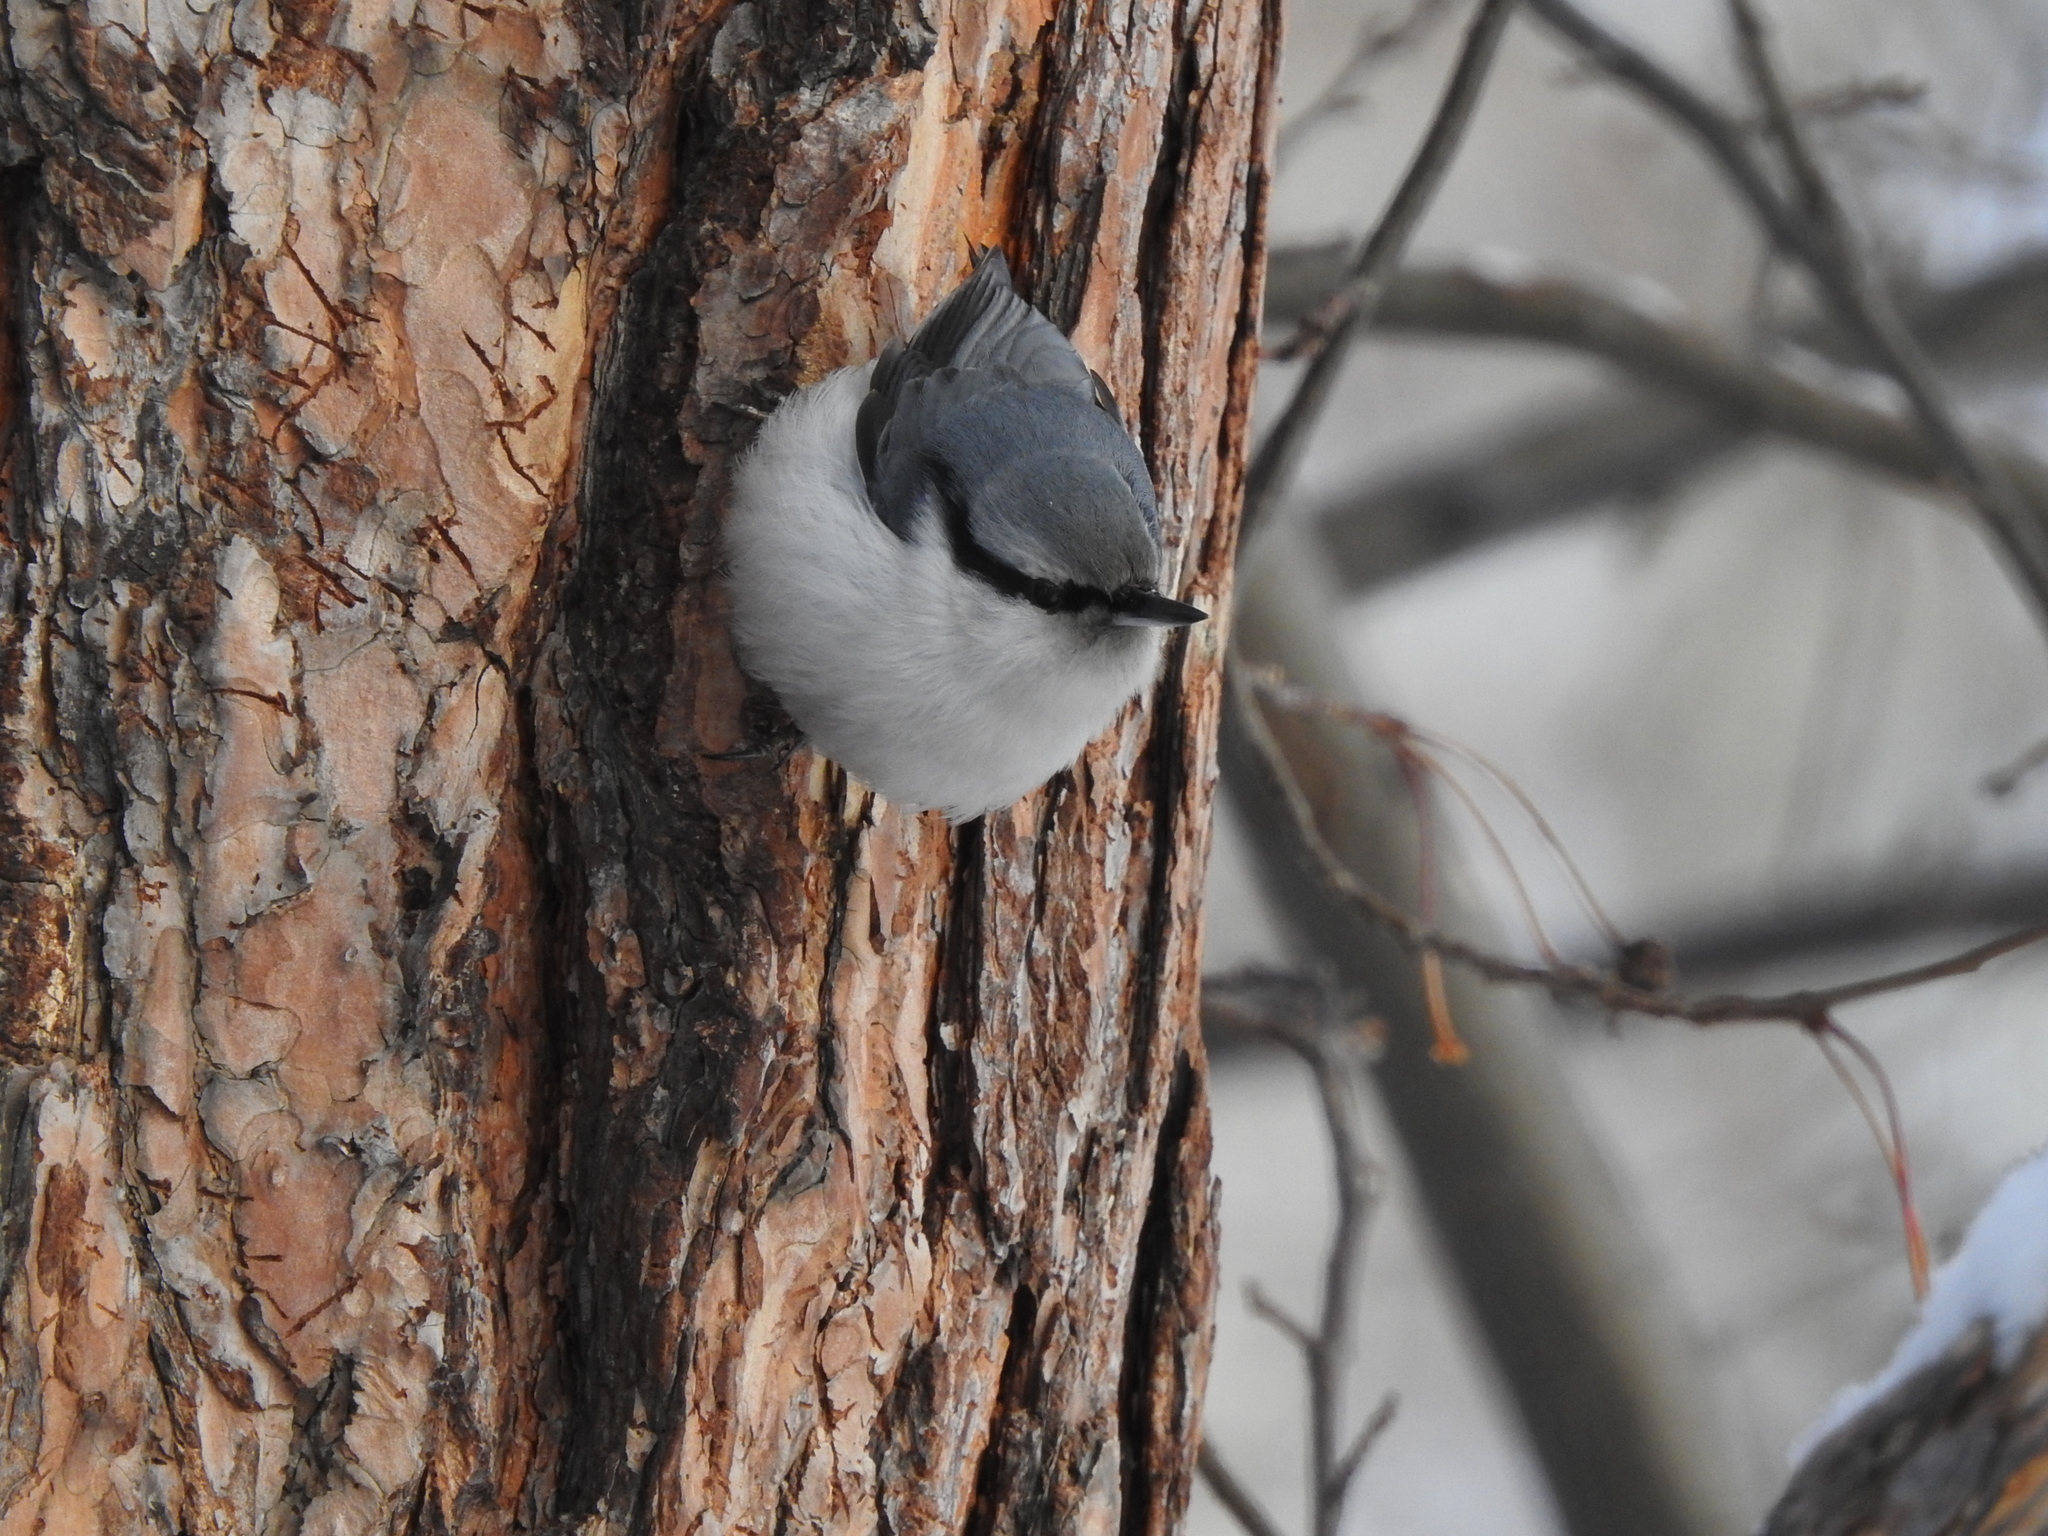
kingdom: Animalia
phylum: Chordata
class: Aves
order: Passeriformes
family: Sittidae
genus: Sitta
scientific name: Sitta europaea
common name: Eurasian nuthatch
